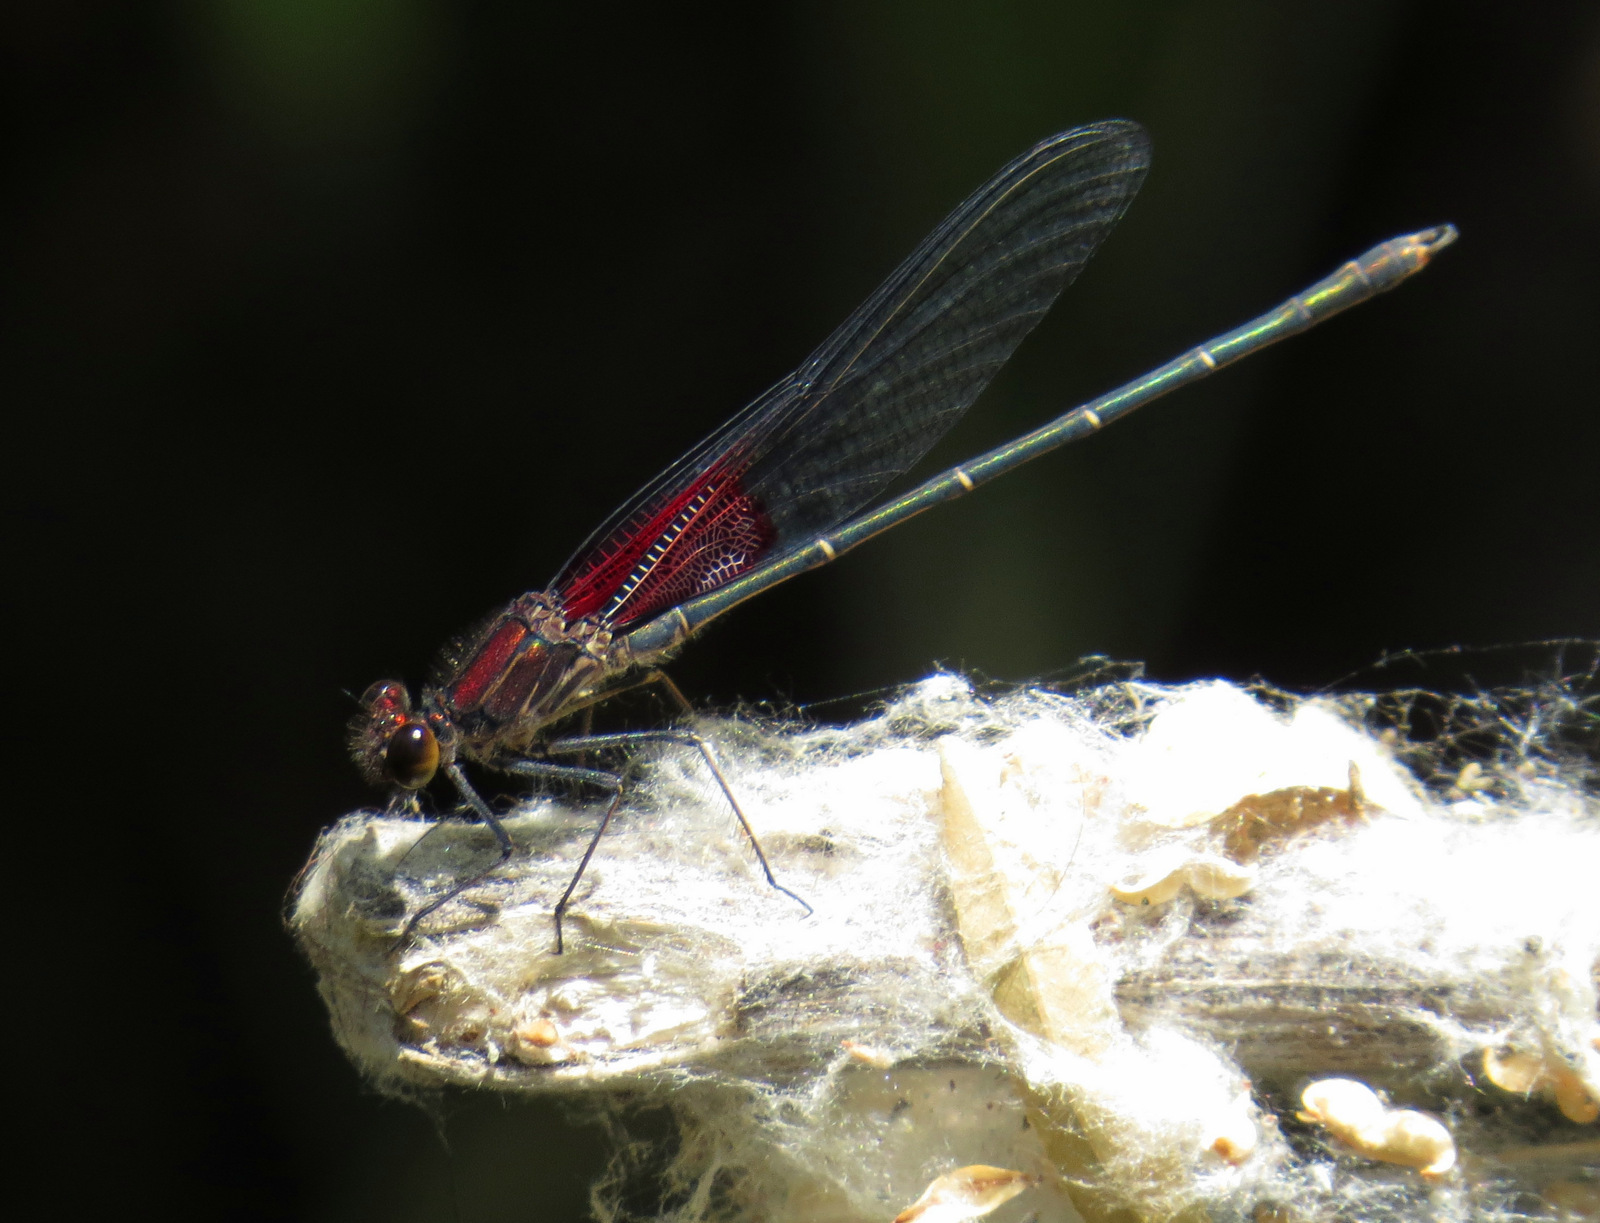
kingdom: Animalia
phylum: Arthropoda
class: Insecta
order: Odonata
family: Calopterygidae
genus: Hetaerina
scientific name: Hetaerina americana
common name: American rubyspot
